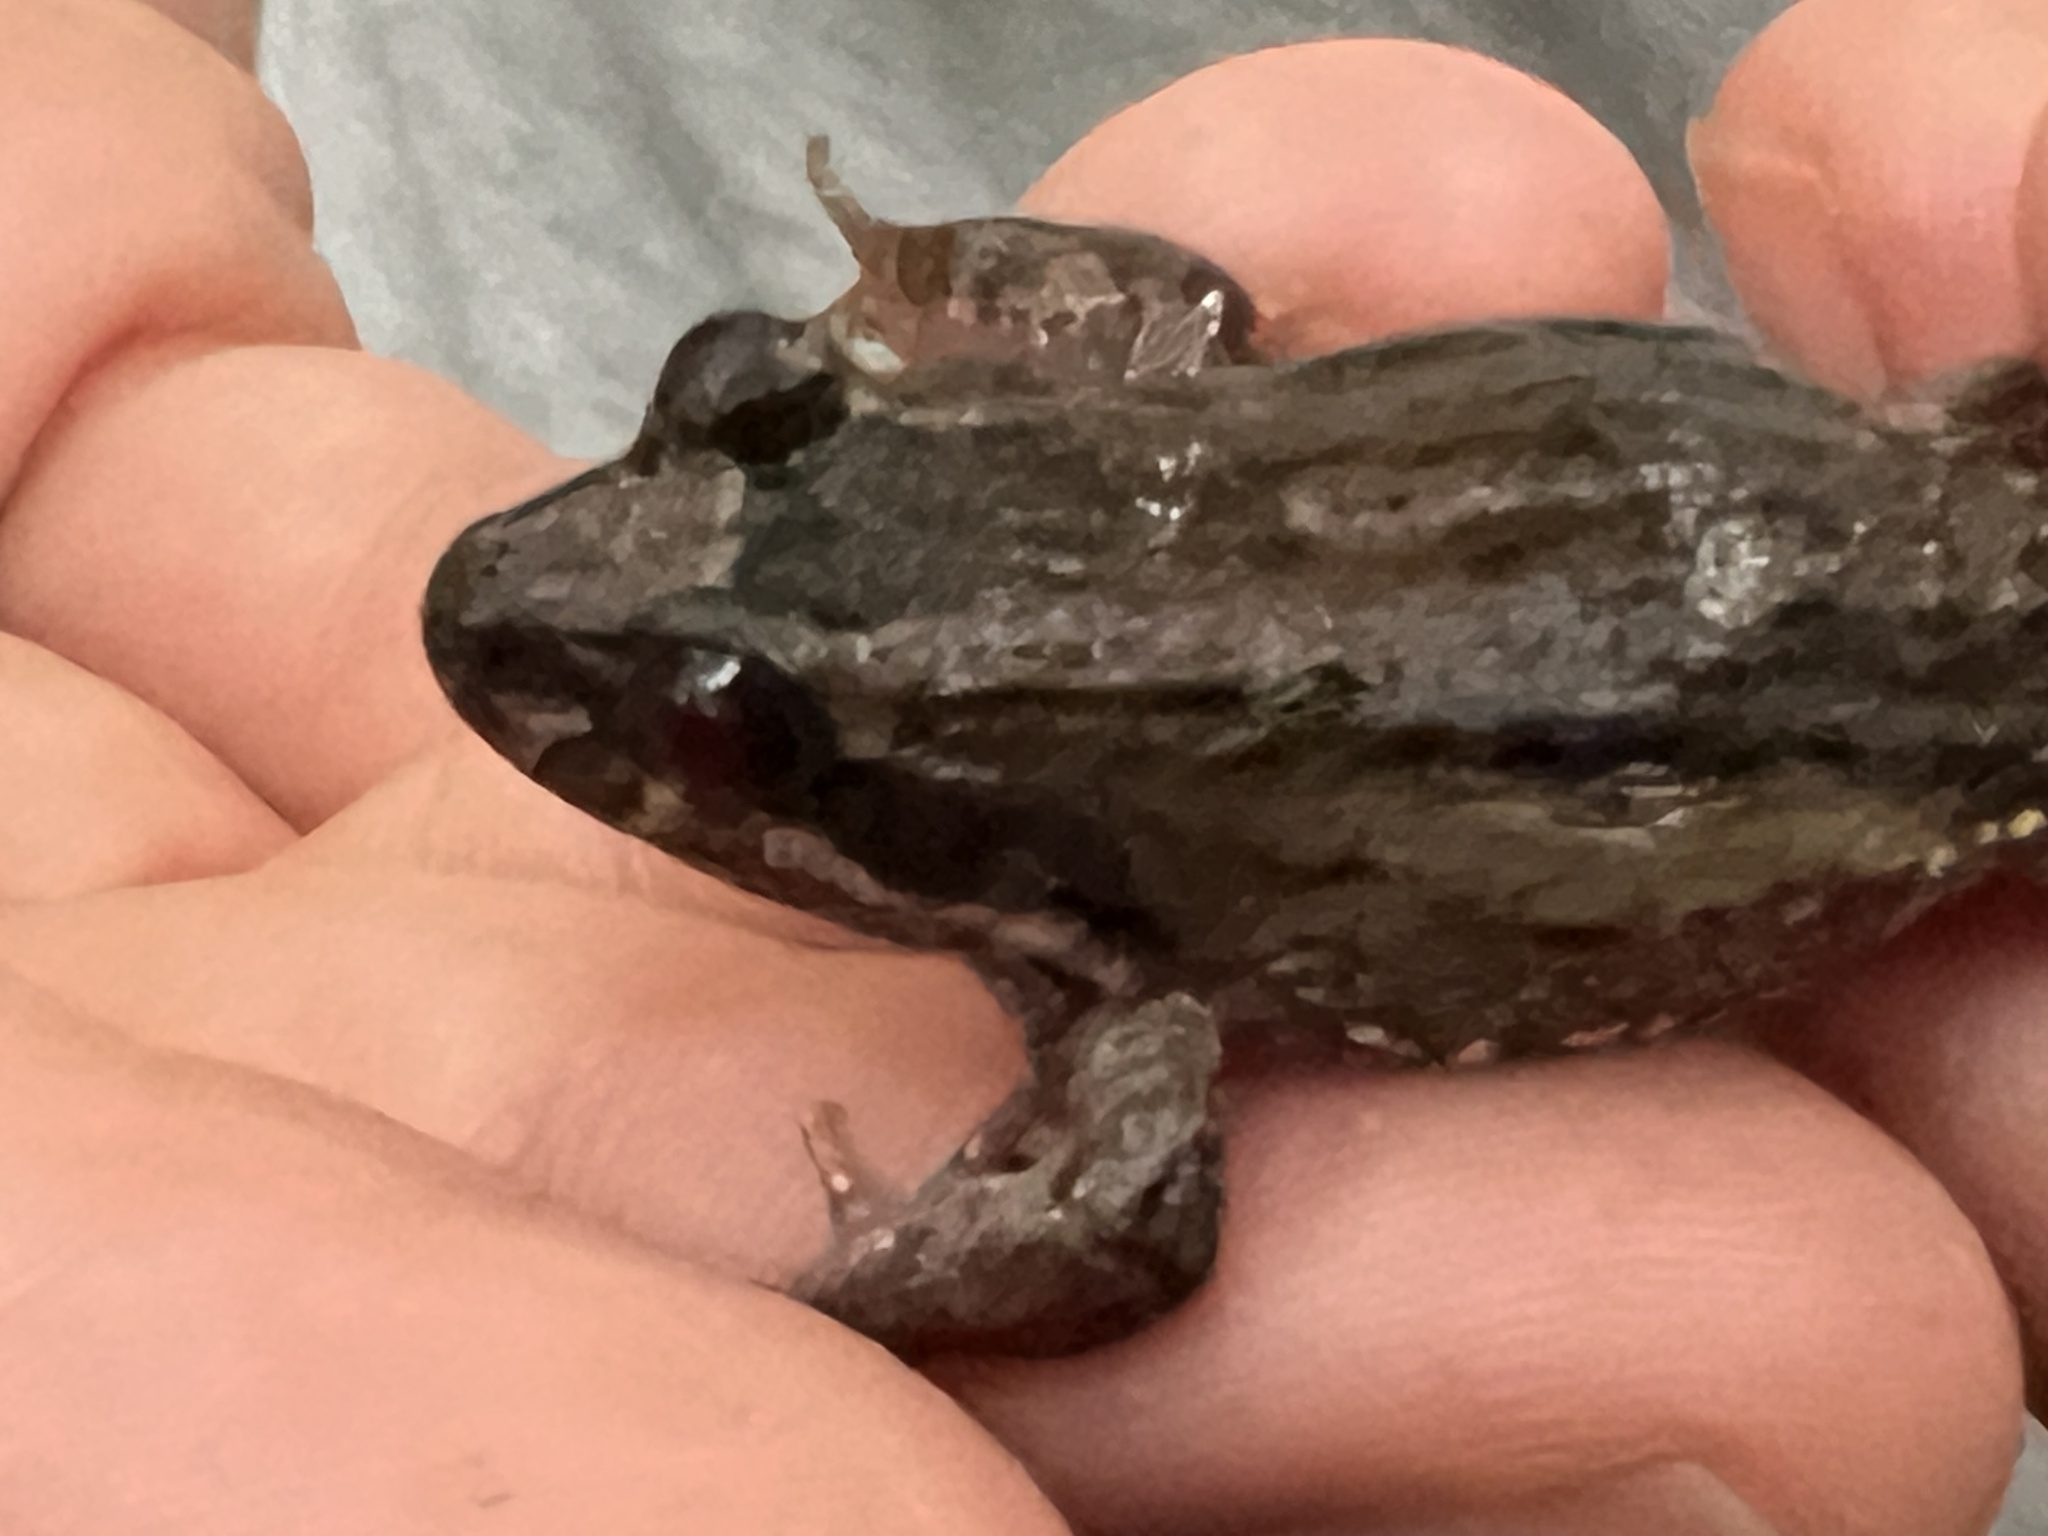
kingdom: Animalia
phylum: Chordata
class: Amphibia
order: Anura
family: Leptodactylidae
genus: Leptodactylus
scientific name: Leptodactylus podicipinus
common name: Pointedbelly frog
